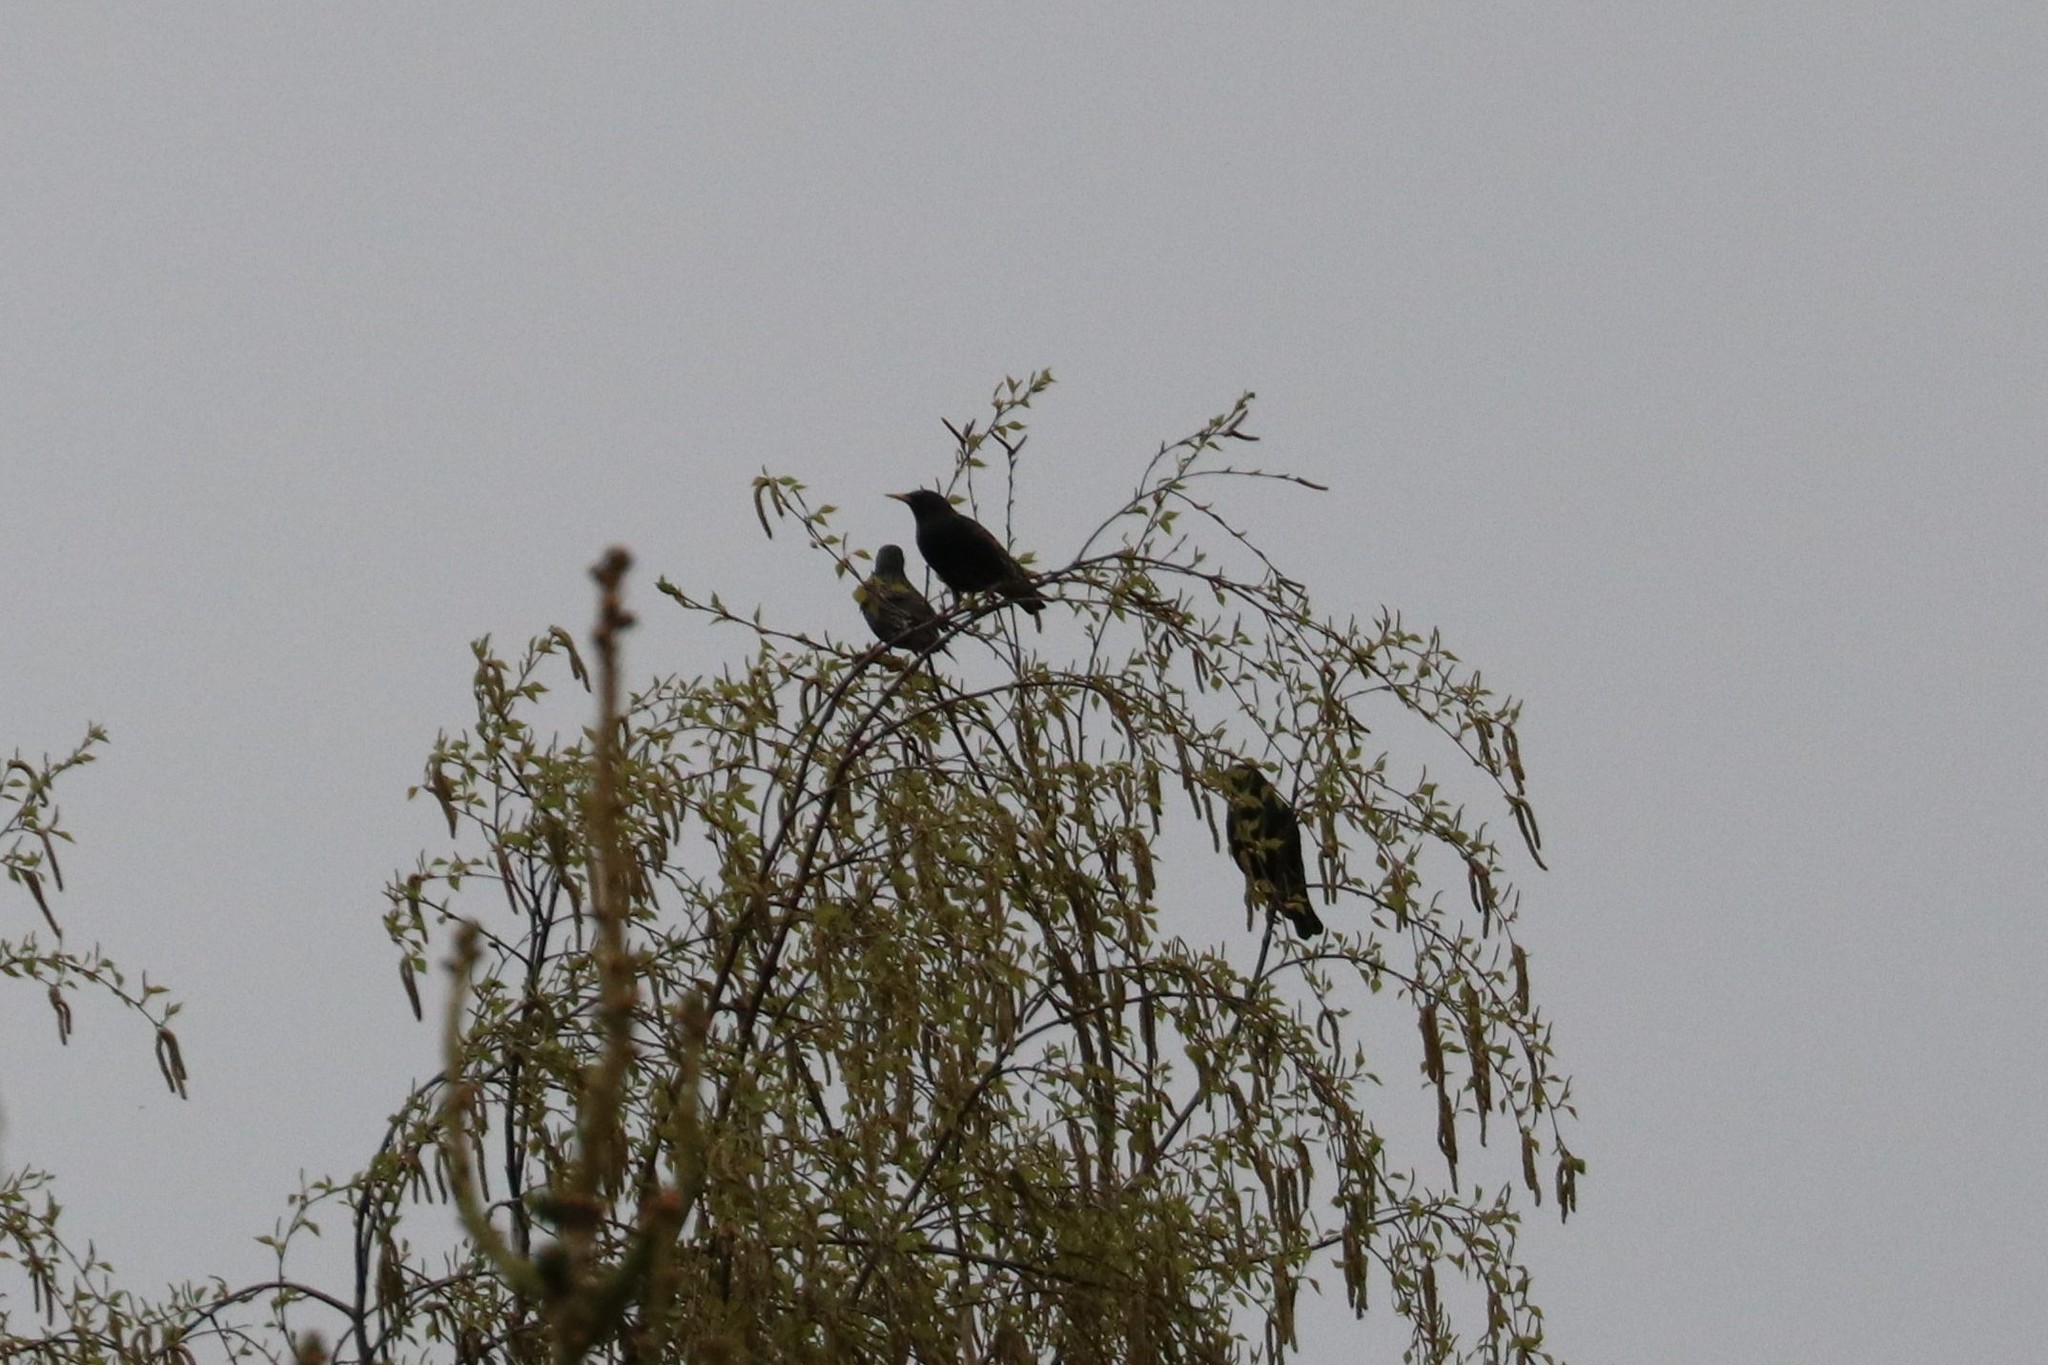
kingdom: Animalia
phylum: Chordata
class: Aves
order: Passeriformes
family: Sturnidae
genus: Sturnus
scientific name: Sturnus vulgaris
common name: Common starling
